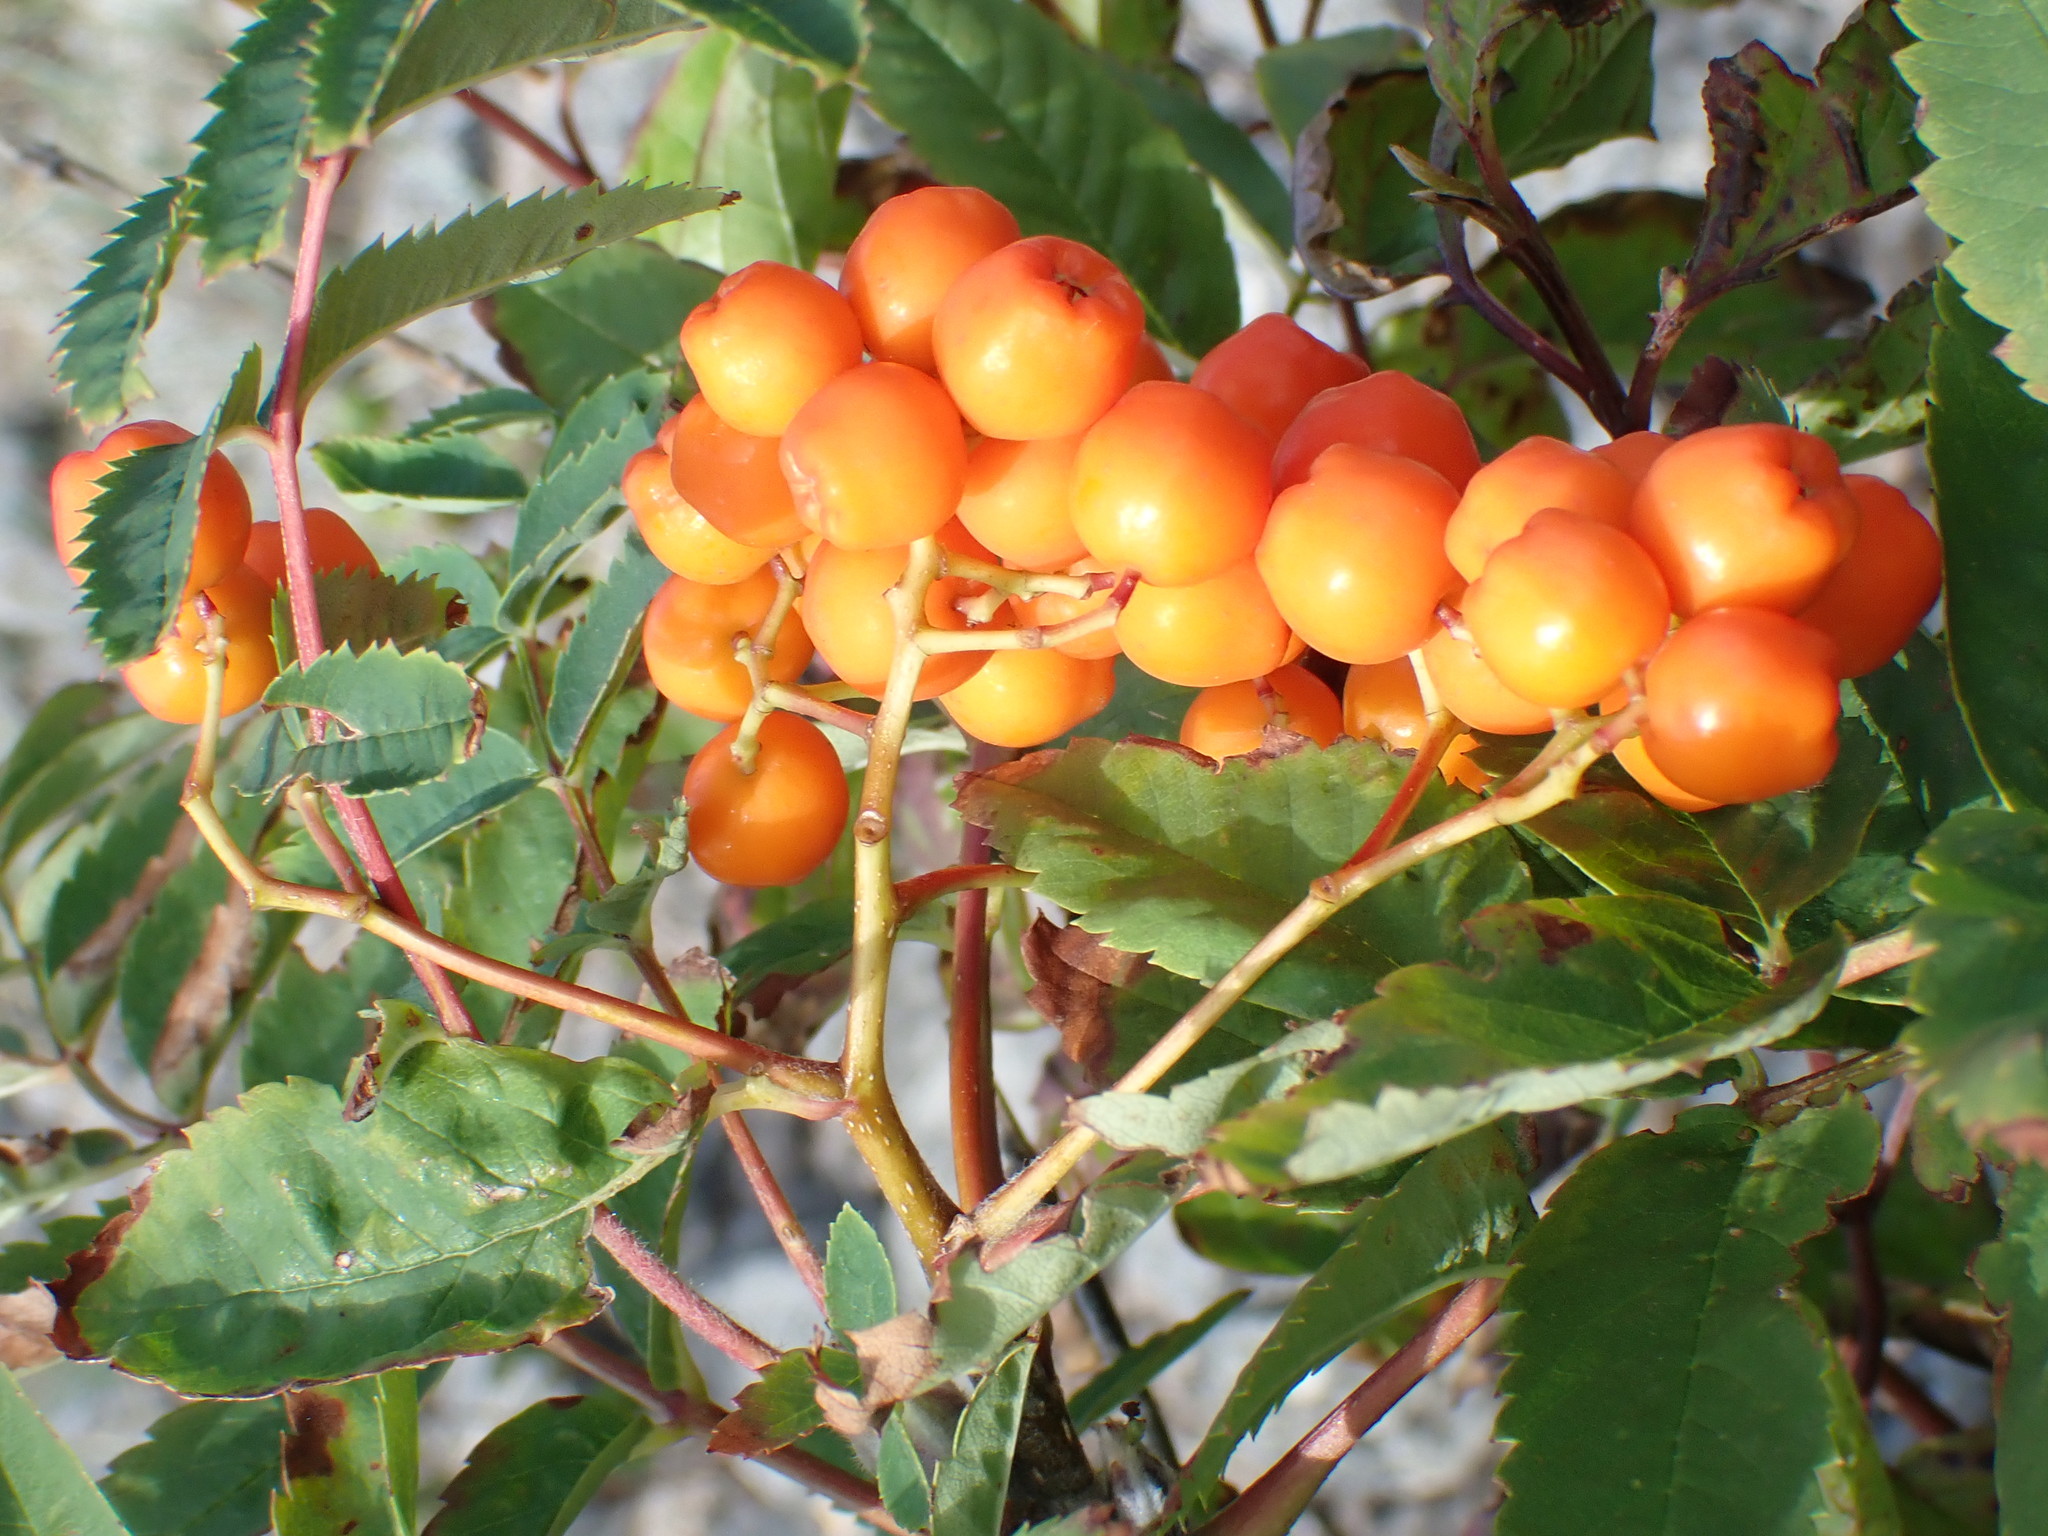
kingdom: Plantae
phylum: Tracheophyta
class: Magnoliopsida
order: Rosales
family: Rosaceae
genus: Sorbus
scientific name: Sorbus aucuparia
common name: Rowan
